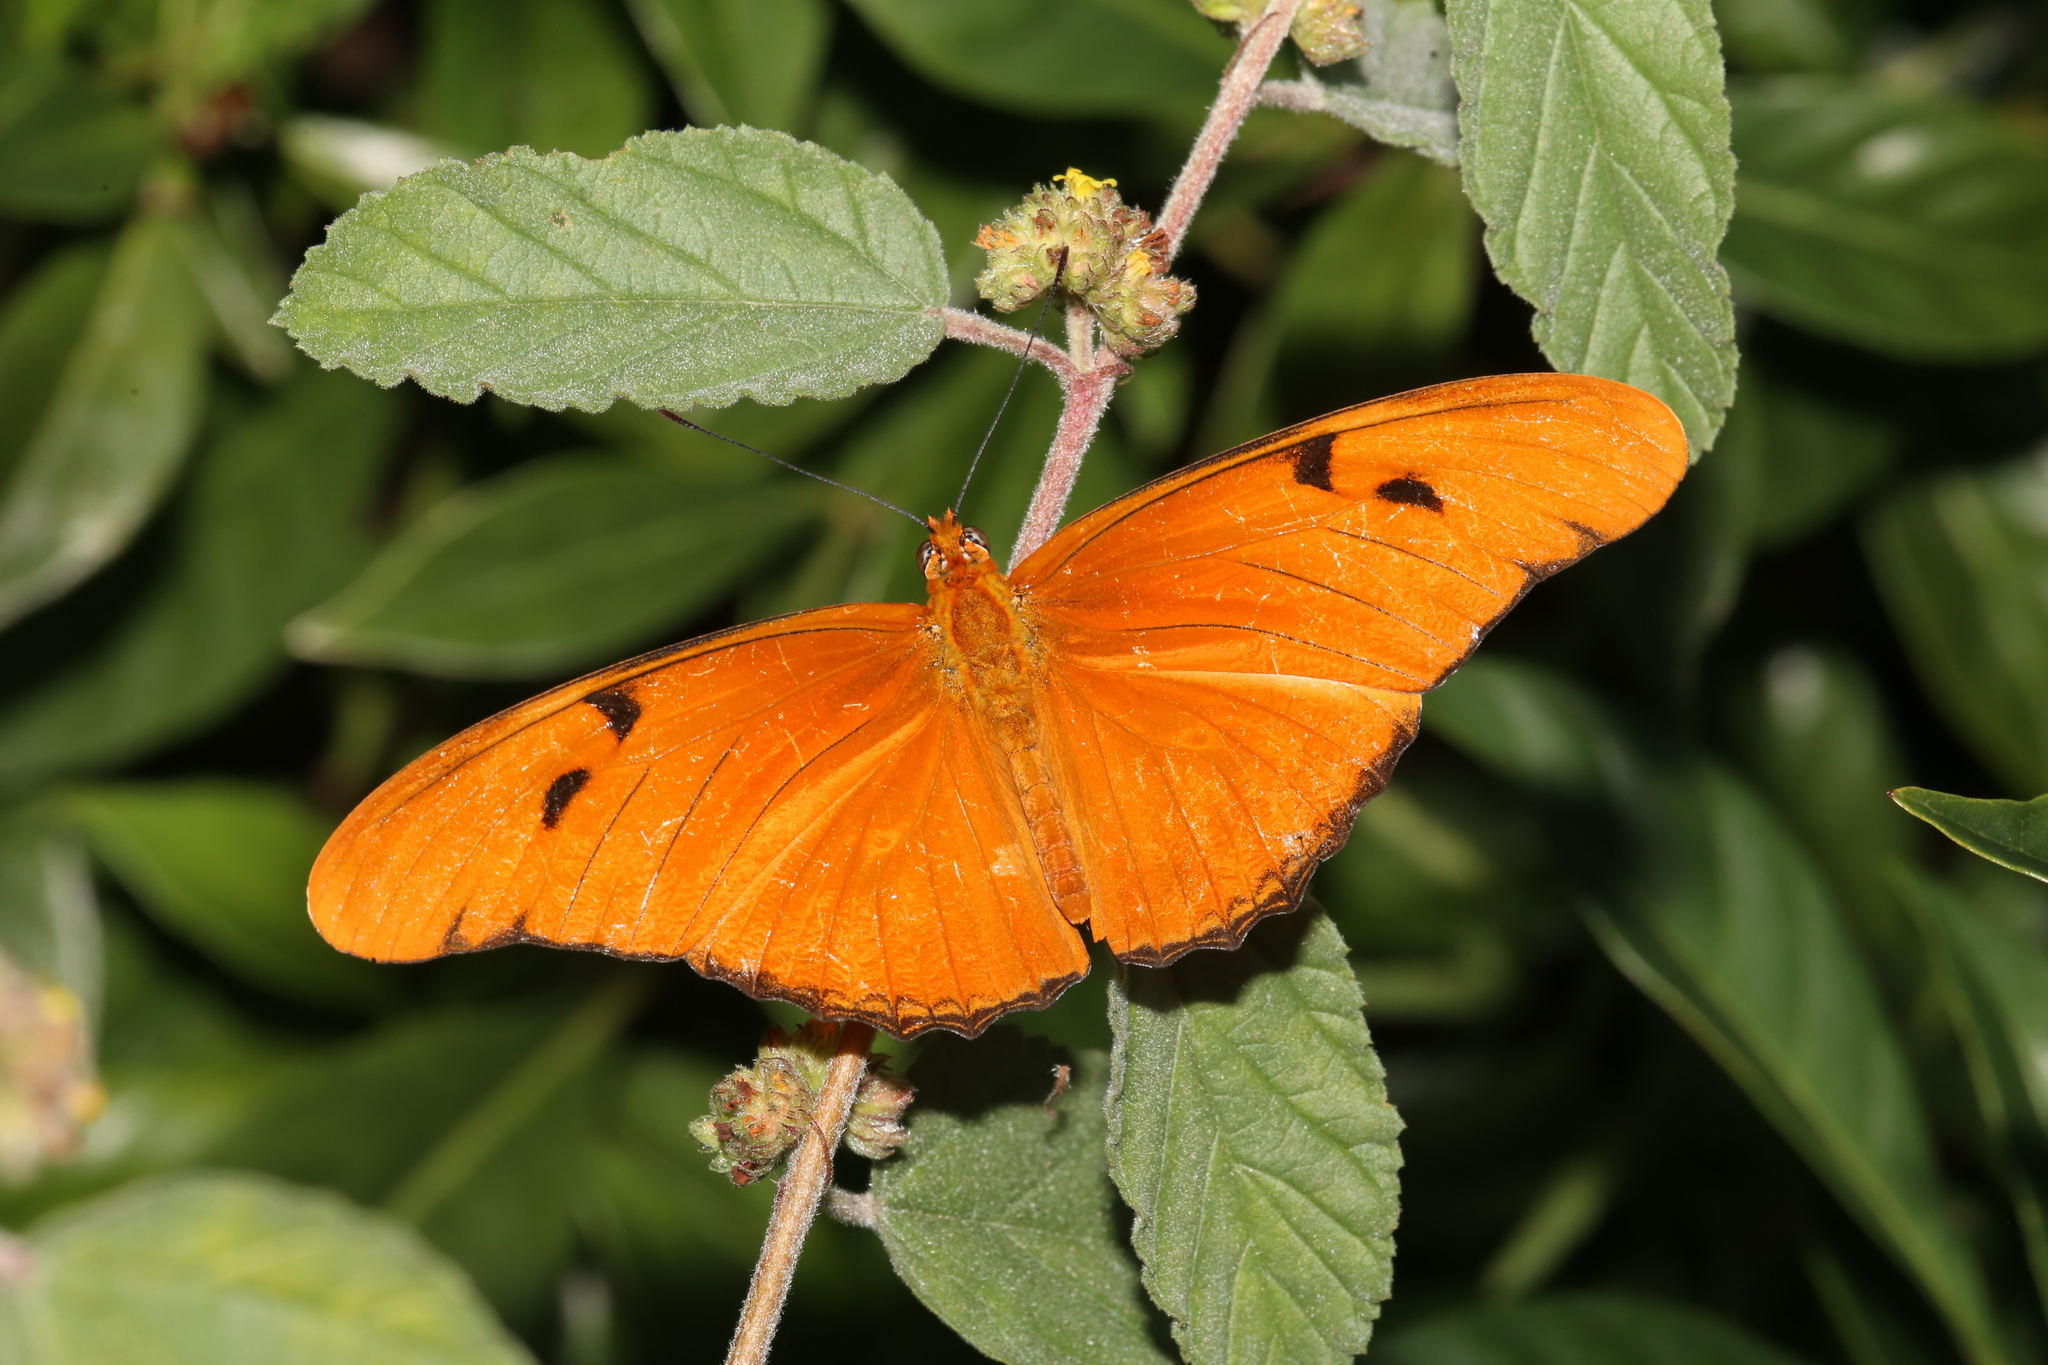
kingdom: Animalia
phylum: Arthropoda
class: Insecta
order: Lepidoptera
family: Nymphalidae
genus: Dryas
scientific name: Dryas iulia
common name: Flambeau
